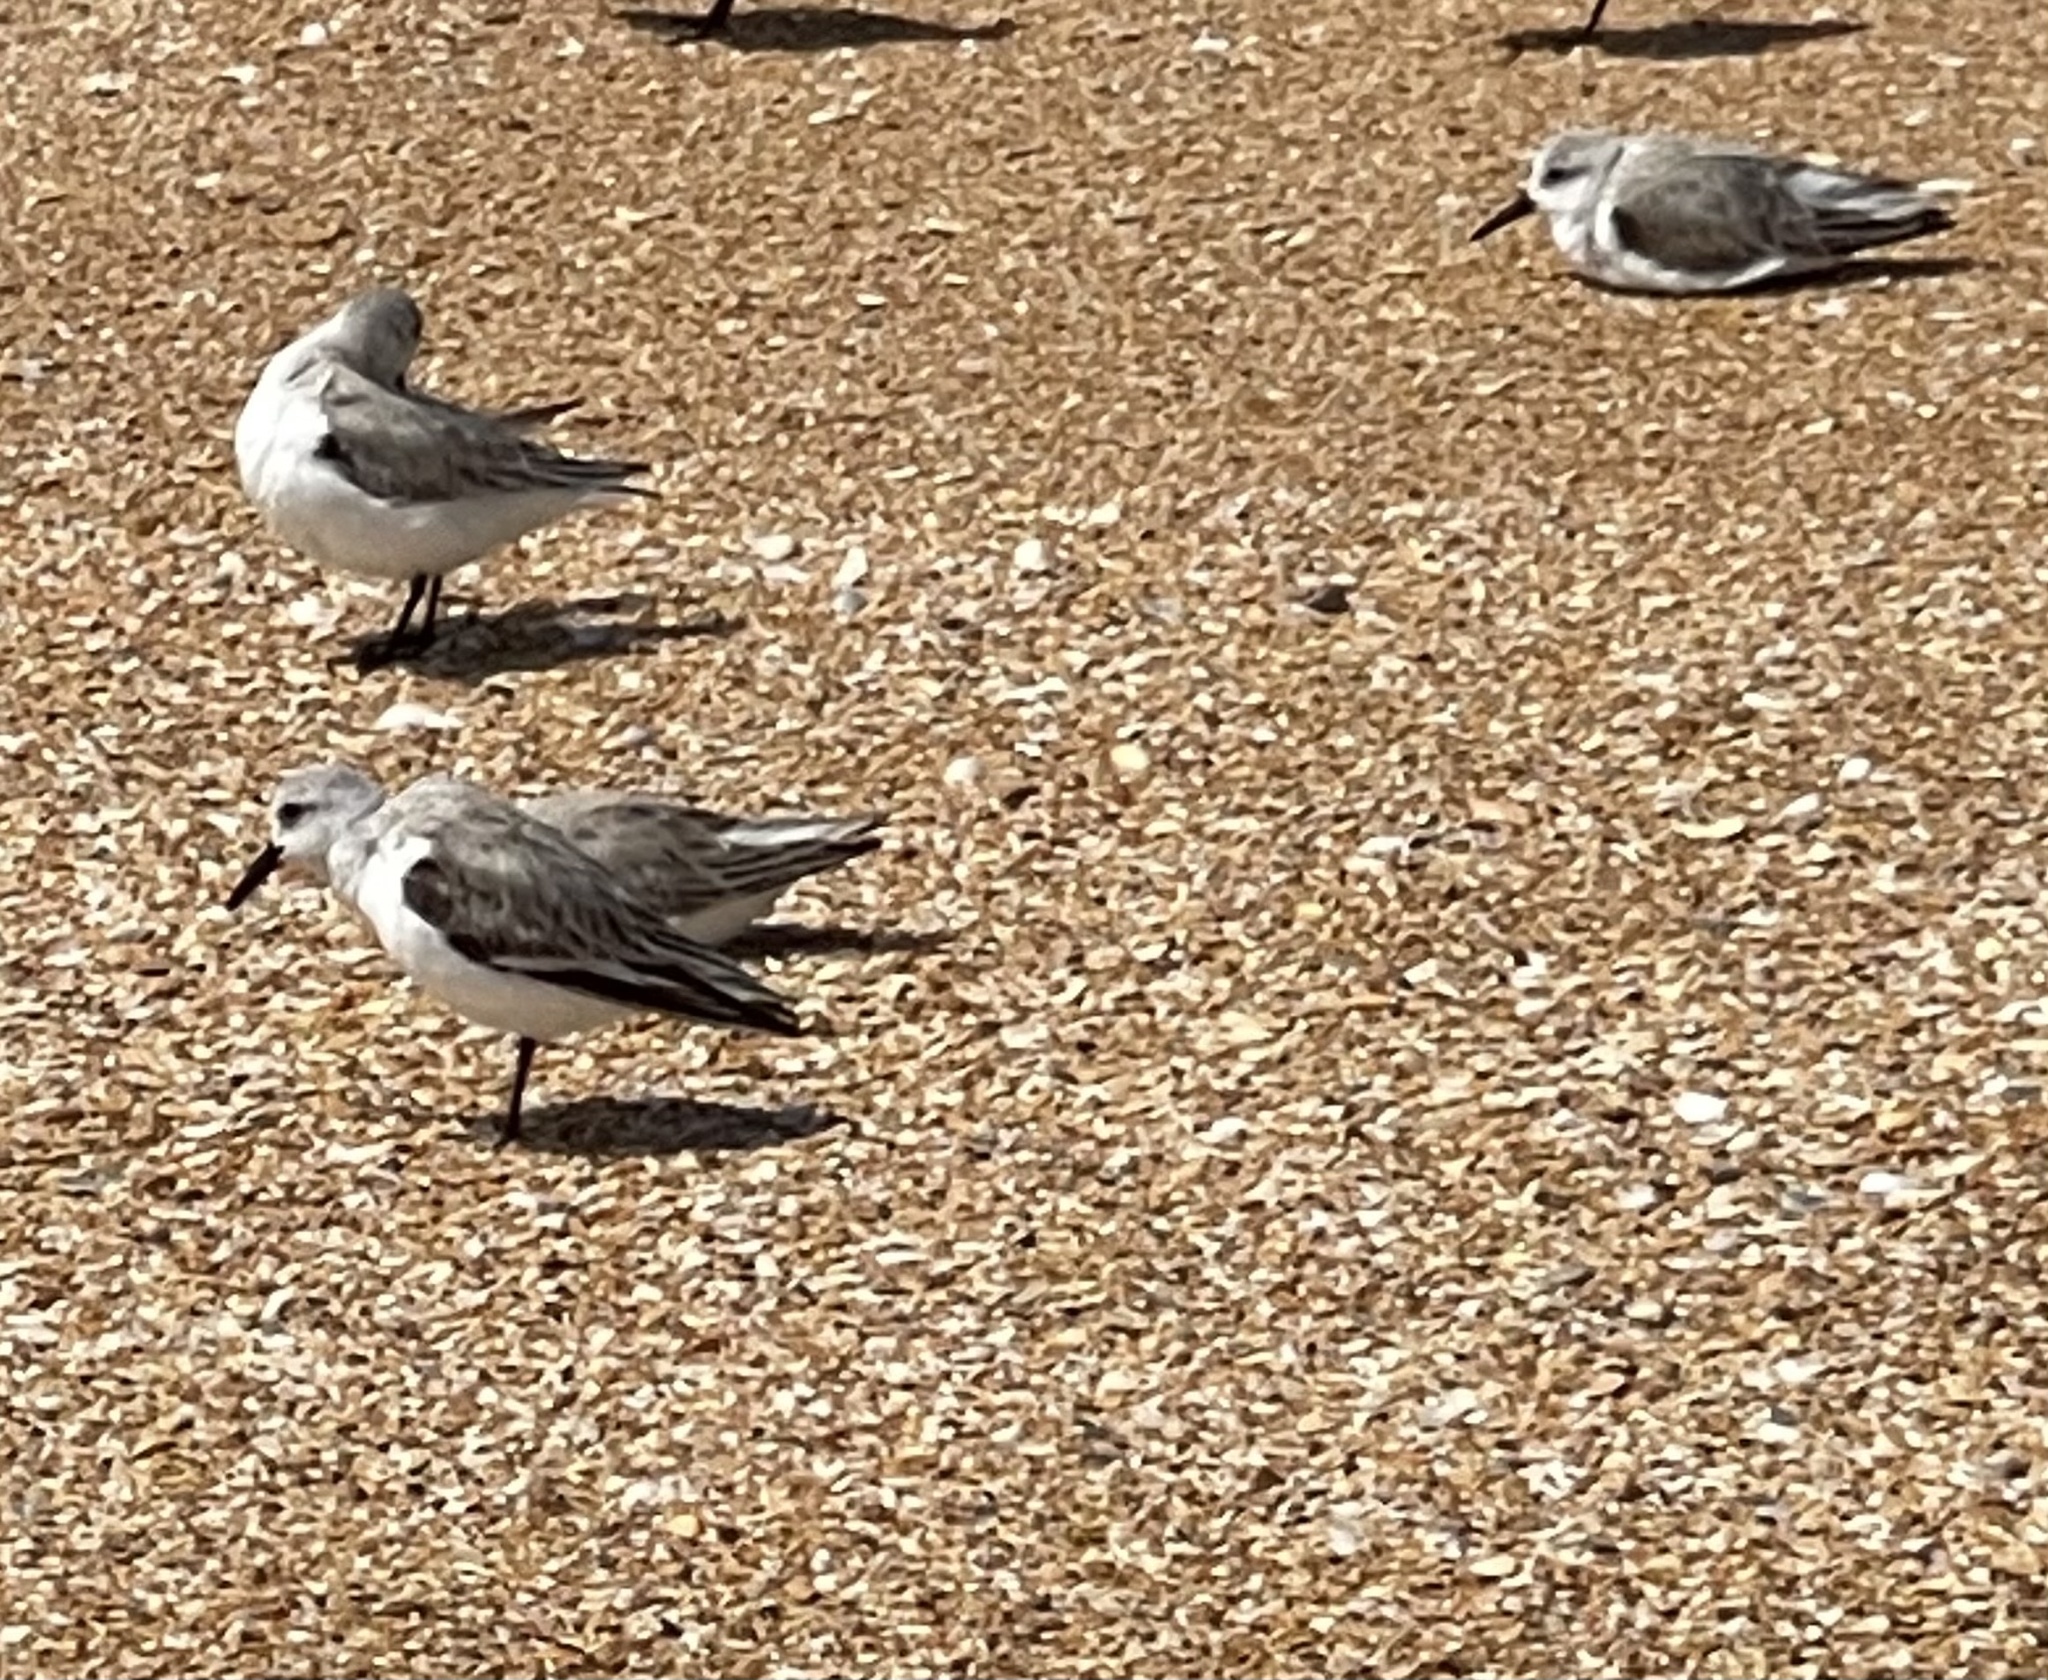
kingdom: Animalia
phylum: Chordata
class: Aves
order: Charadriiformes
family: Scolopacidae
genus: Calidris
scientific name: Calidris alba
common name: Sanderling
